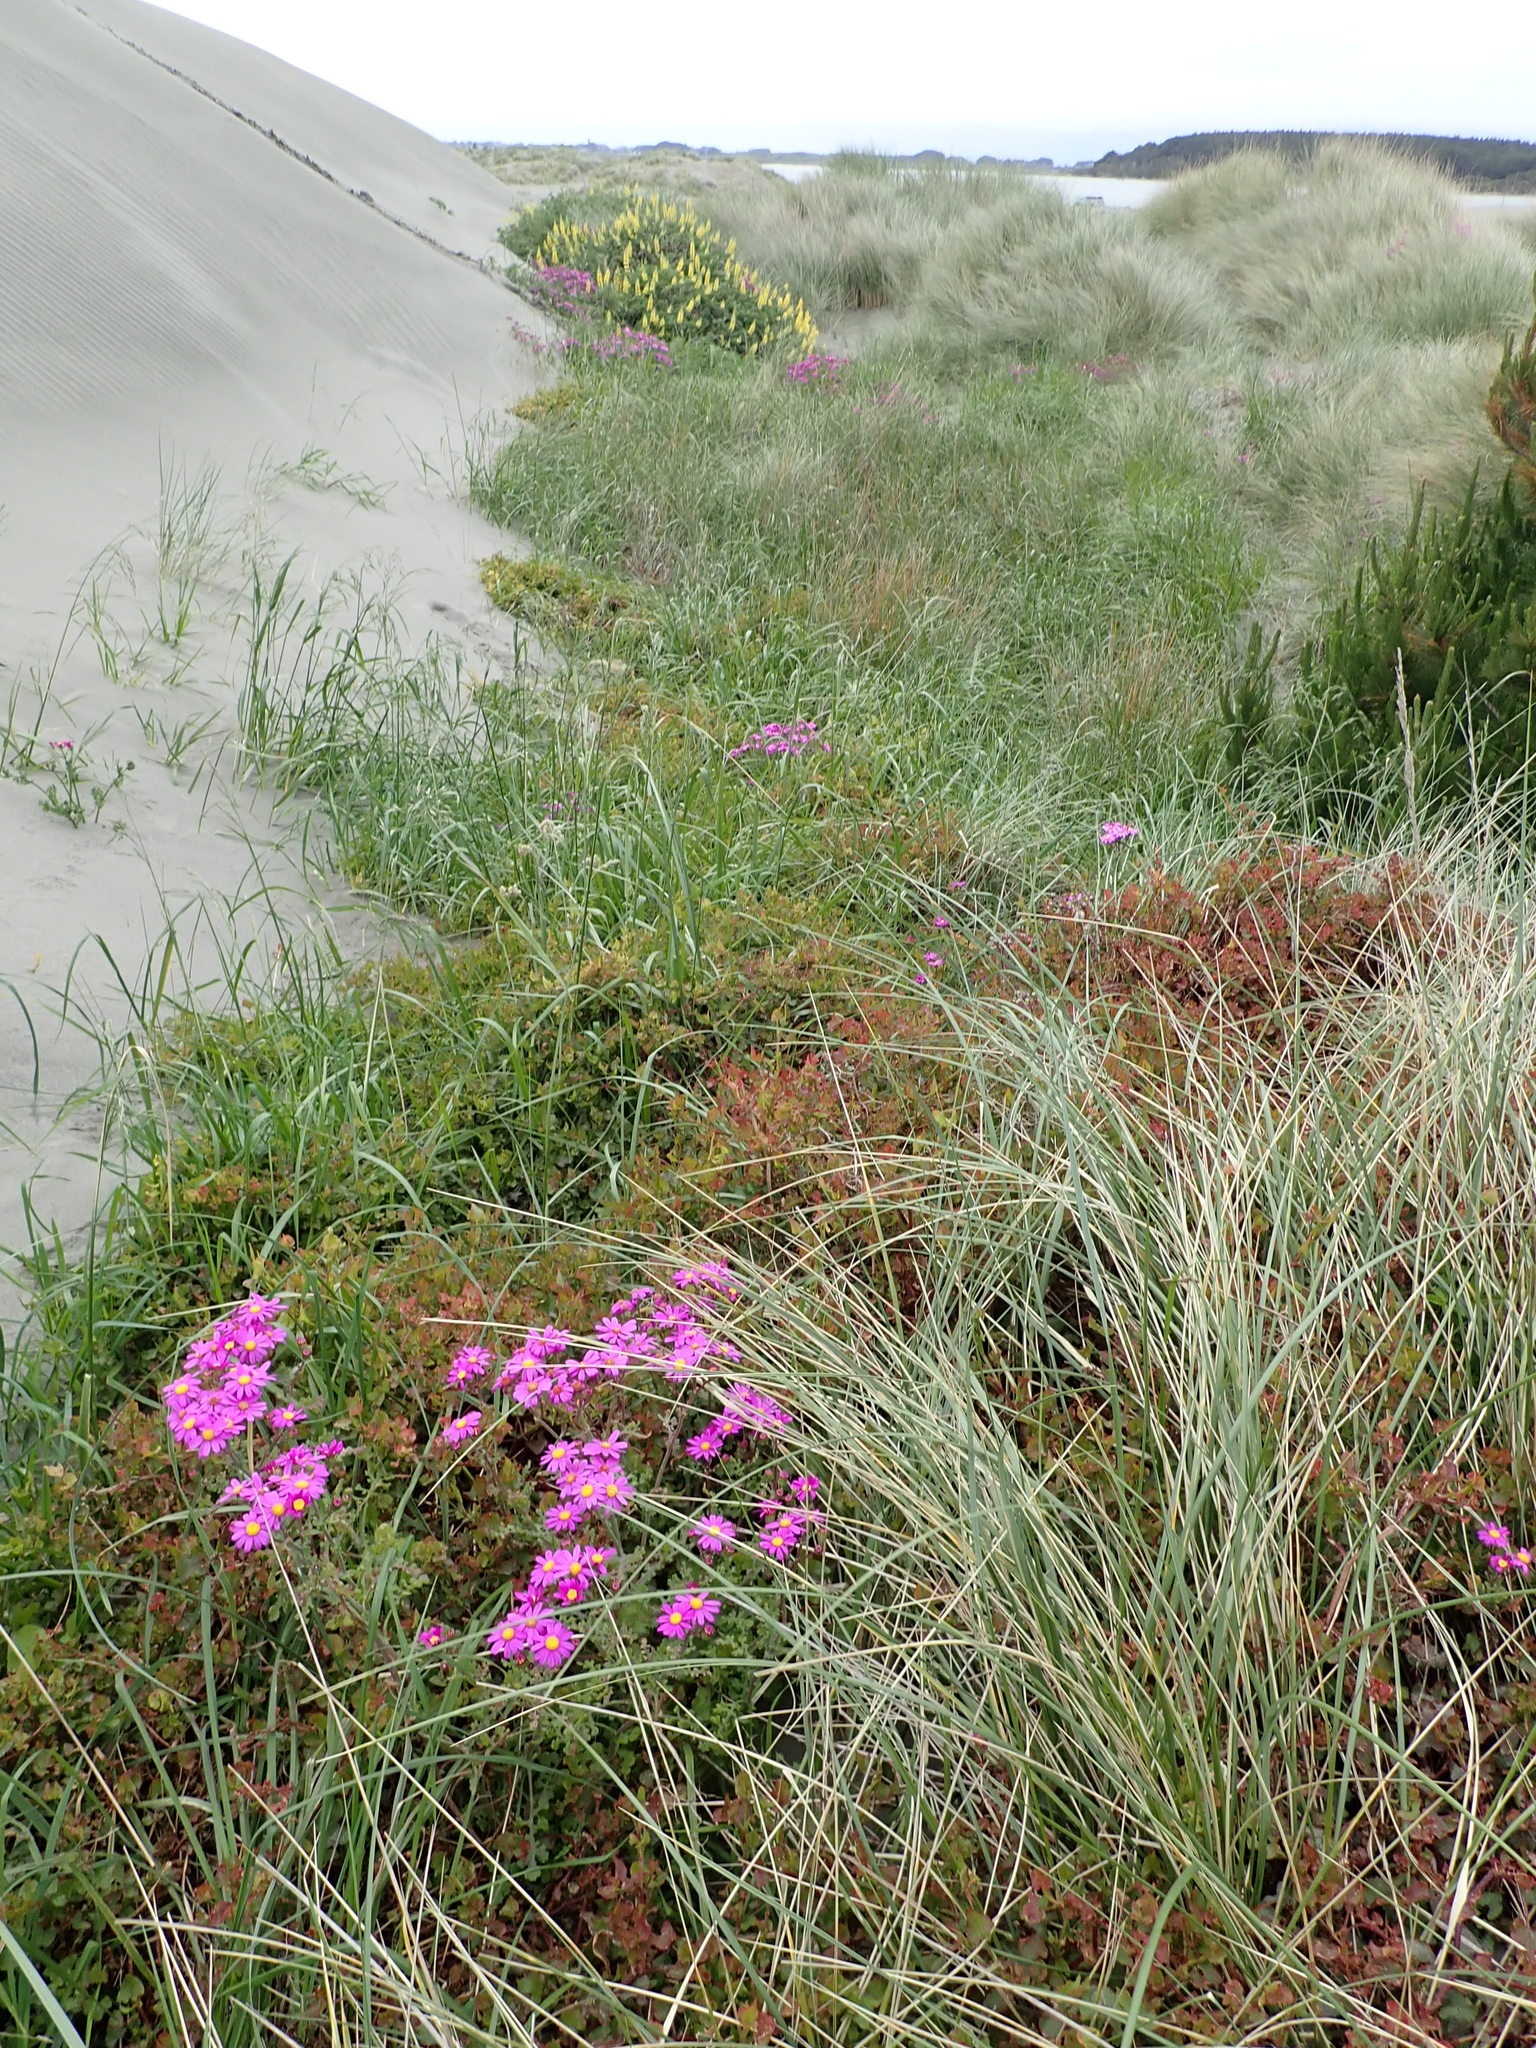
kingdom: Plantae
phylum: Tracheophyta
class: Magnoliopsida
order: Caryophyllales
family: Polygonaceae
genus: Rumex
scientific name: Rumex sagittatus
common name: Climbing dock
